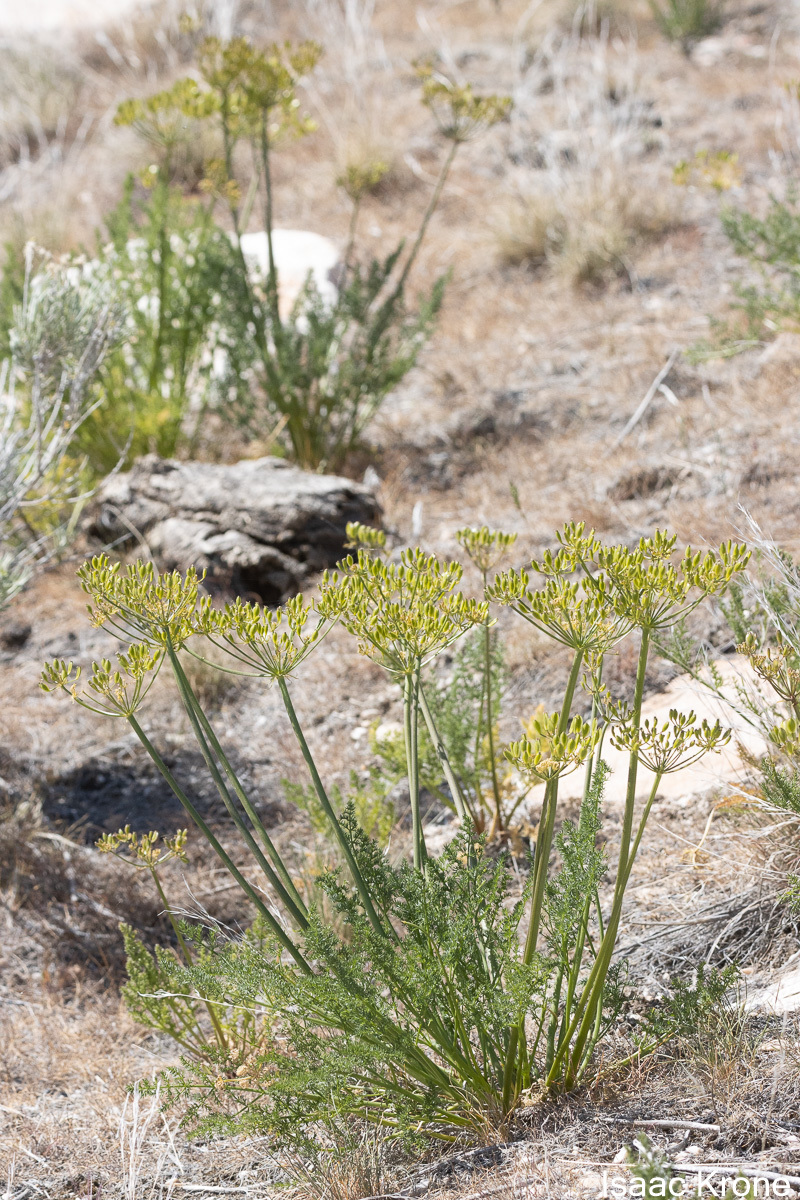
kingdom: Plantae
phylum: Tracheophyta
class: Magnoliopsida
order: Apiales
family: Apiaceae
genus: Lomatium
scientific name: Lomatium grayi
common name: Milfoil lomatium
